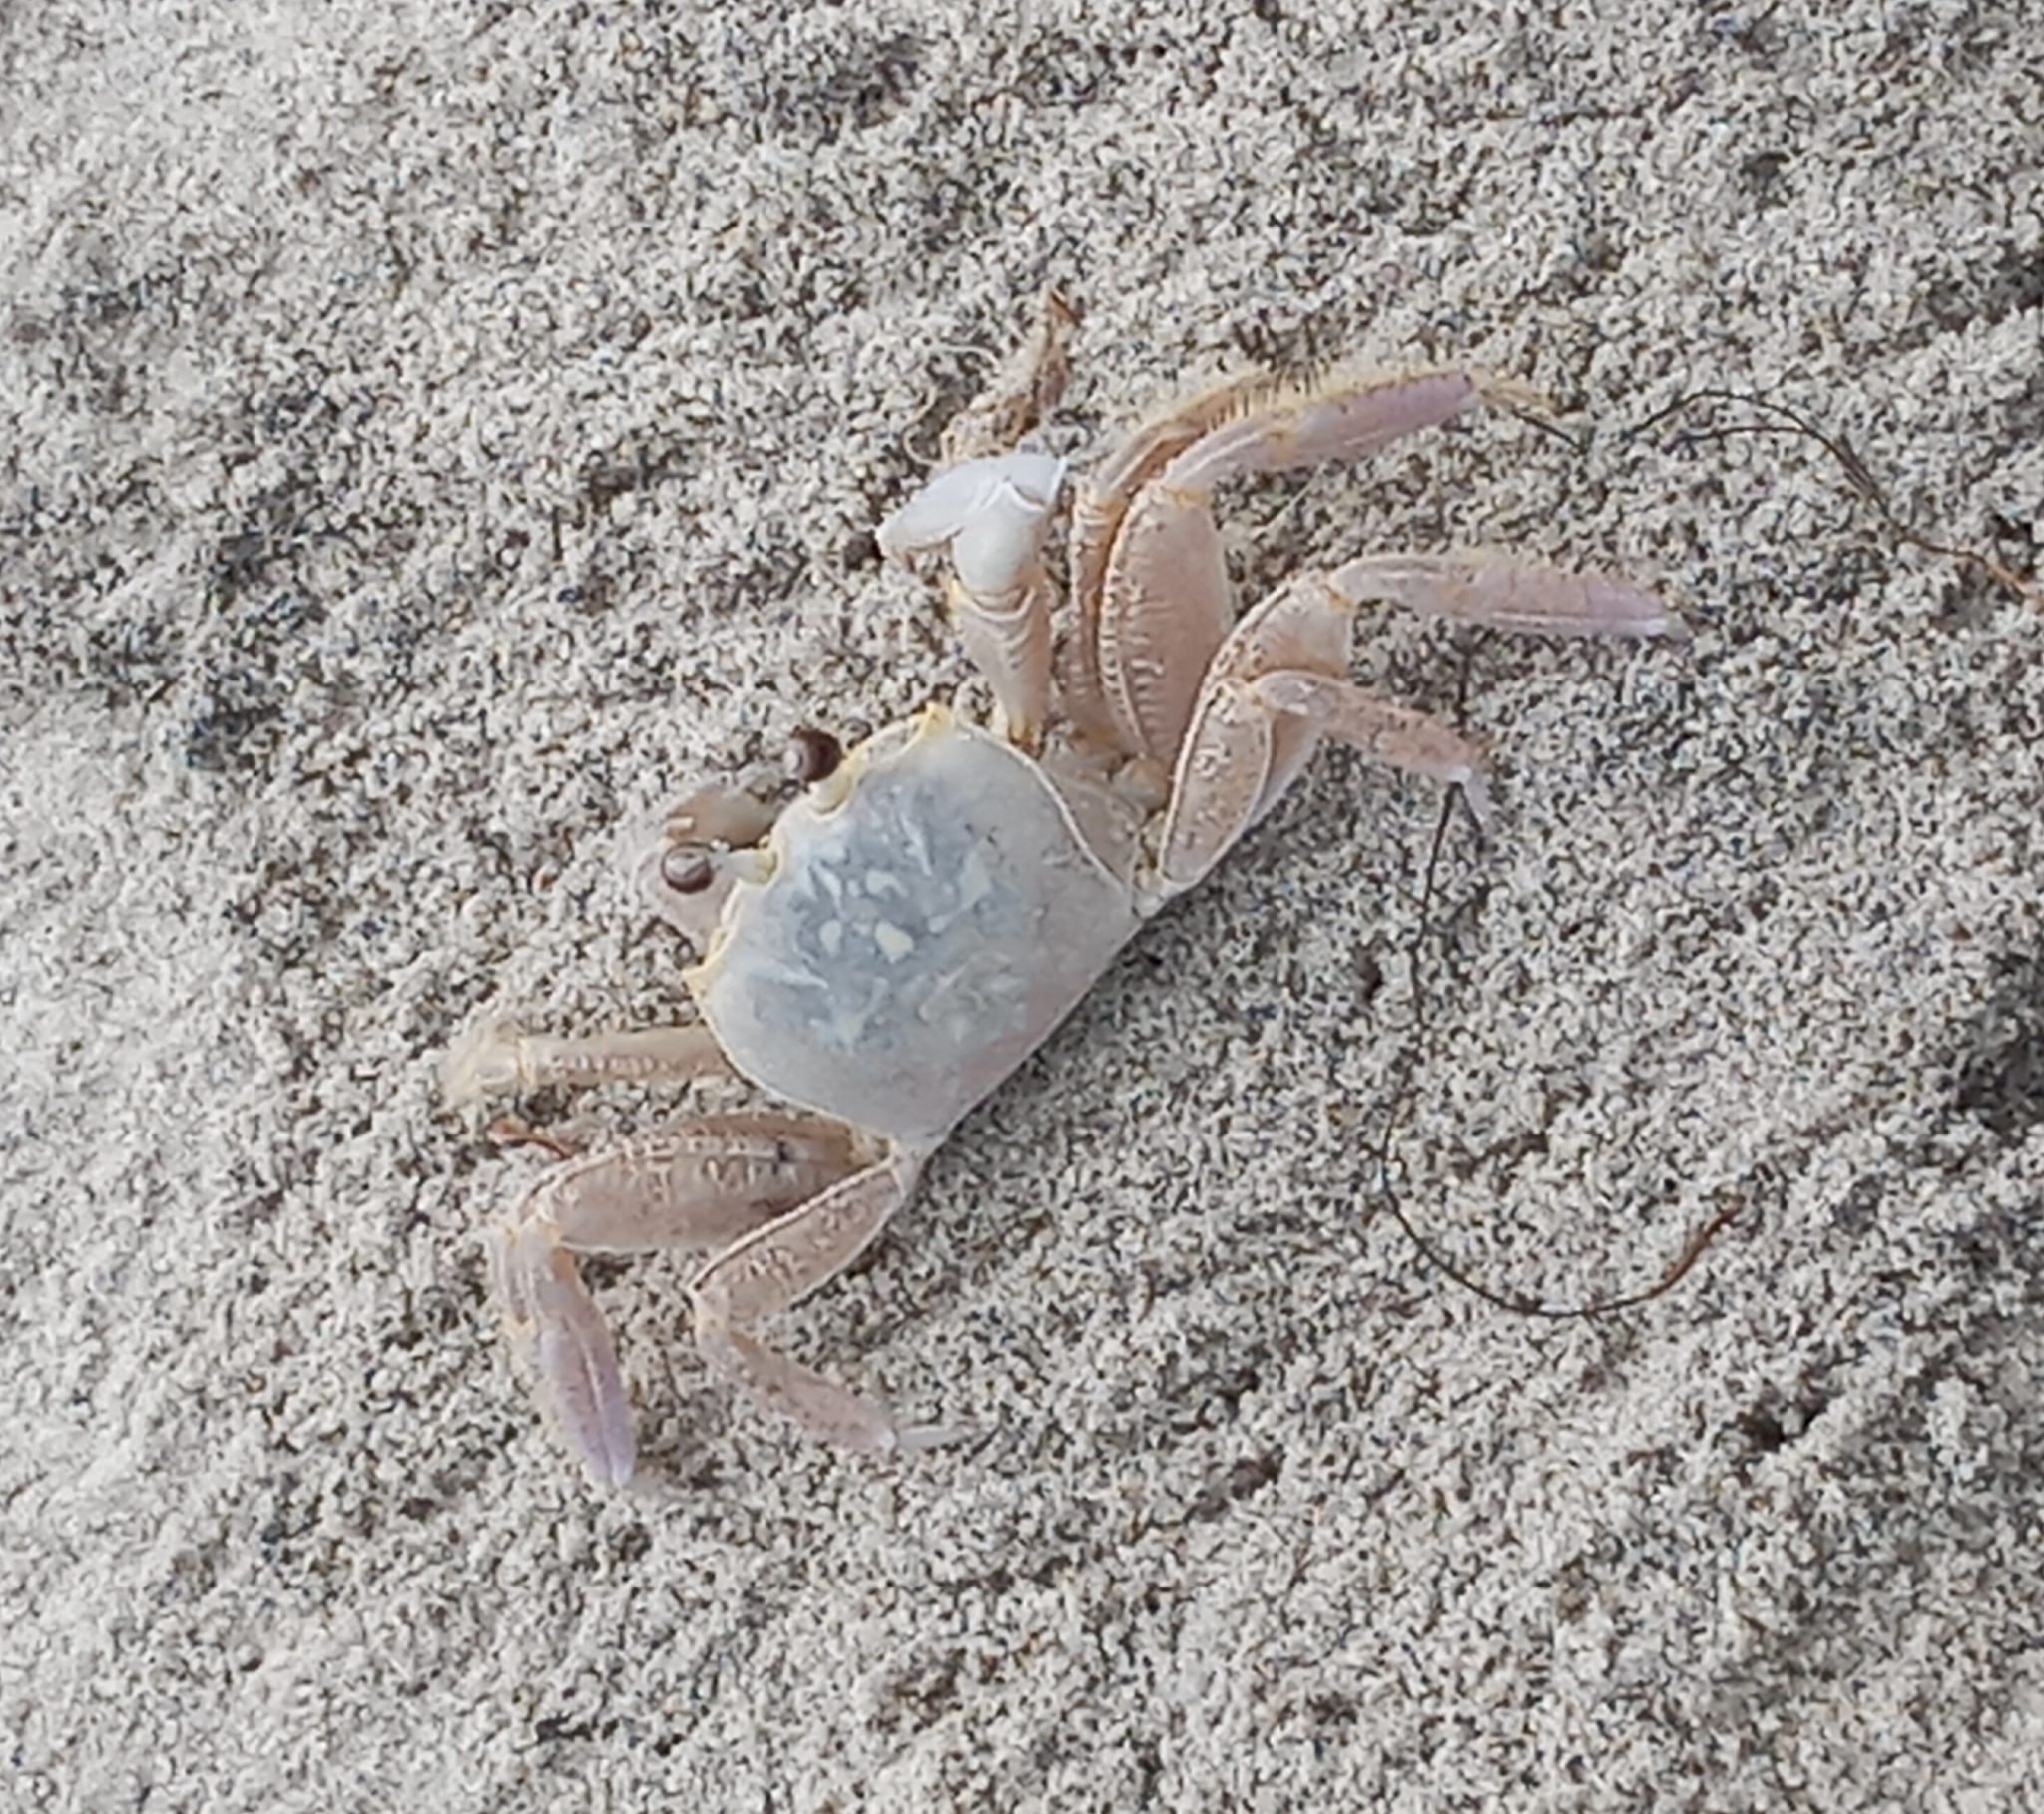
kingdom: Animalia
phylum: Arthropoda
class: Malacostraca
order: Decapoda
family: Ocypodidae
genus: Ocypode
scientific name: Ocypode quadrata
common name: Ghost crab
